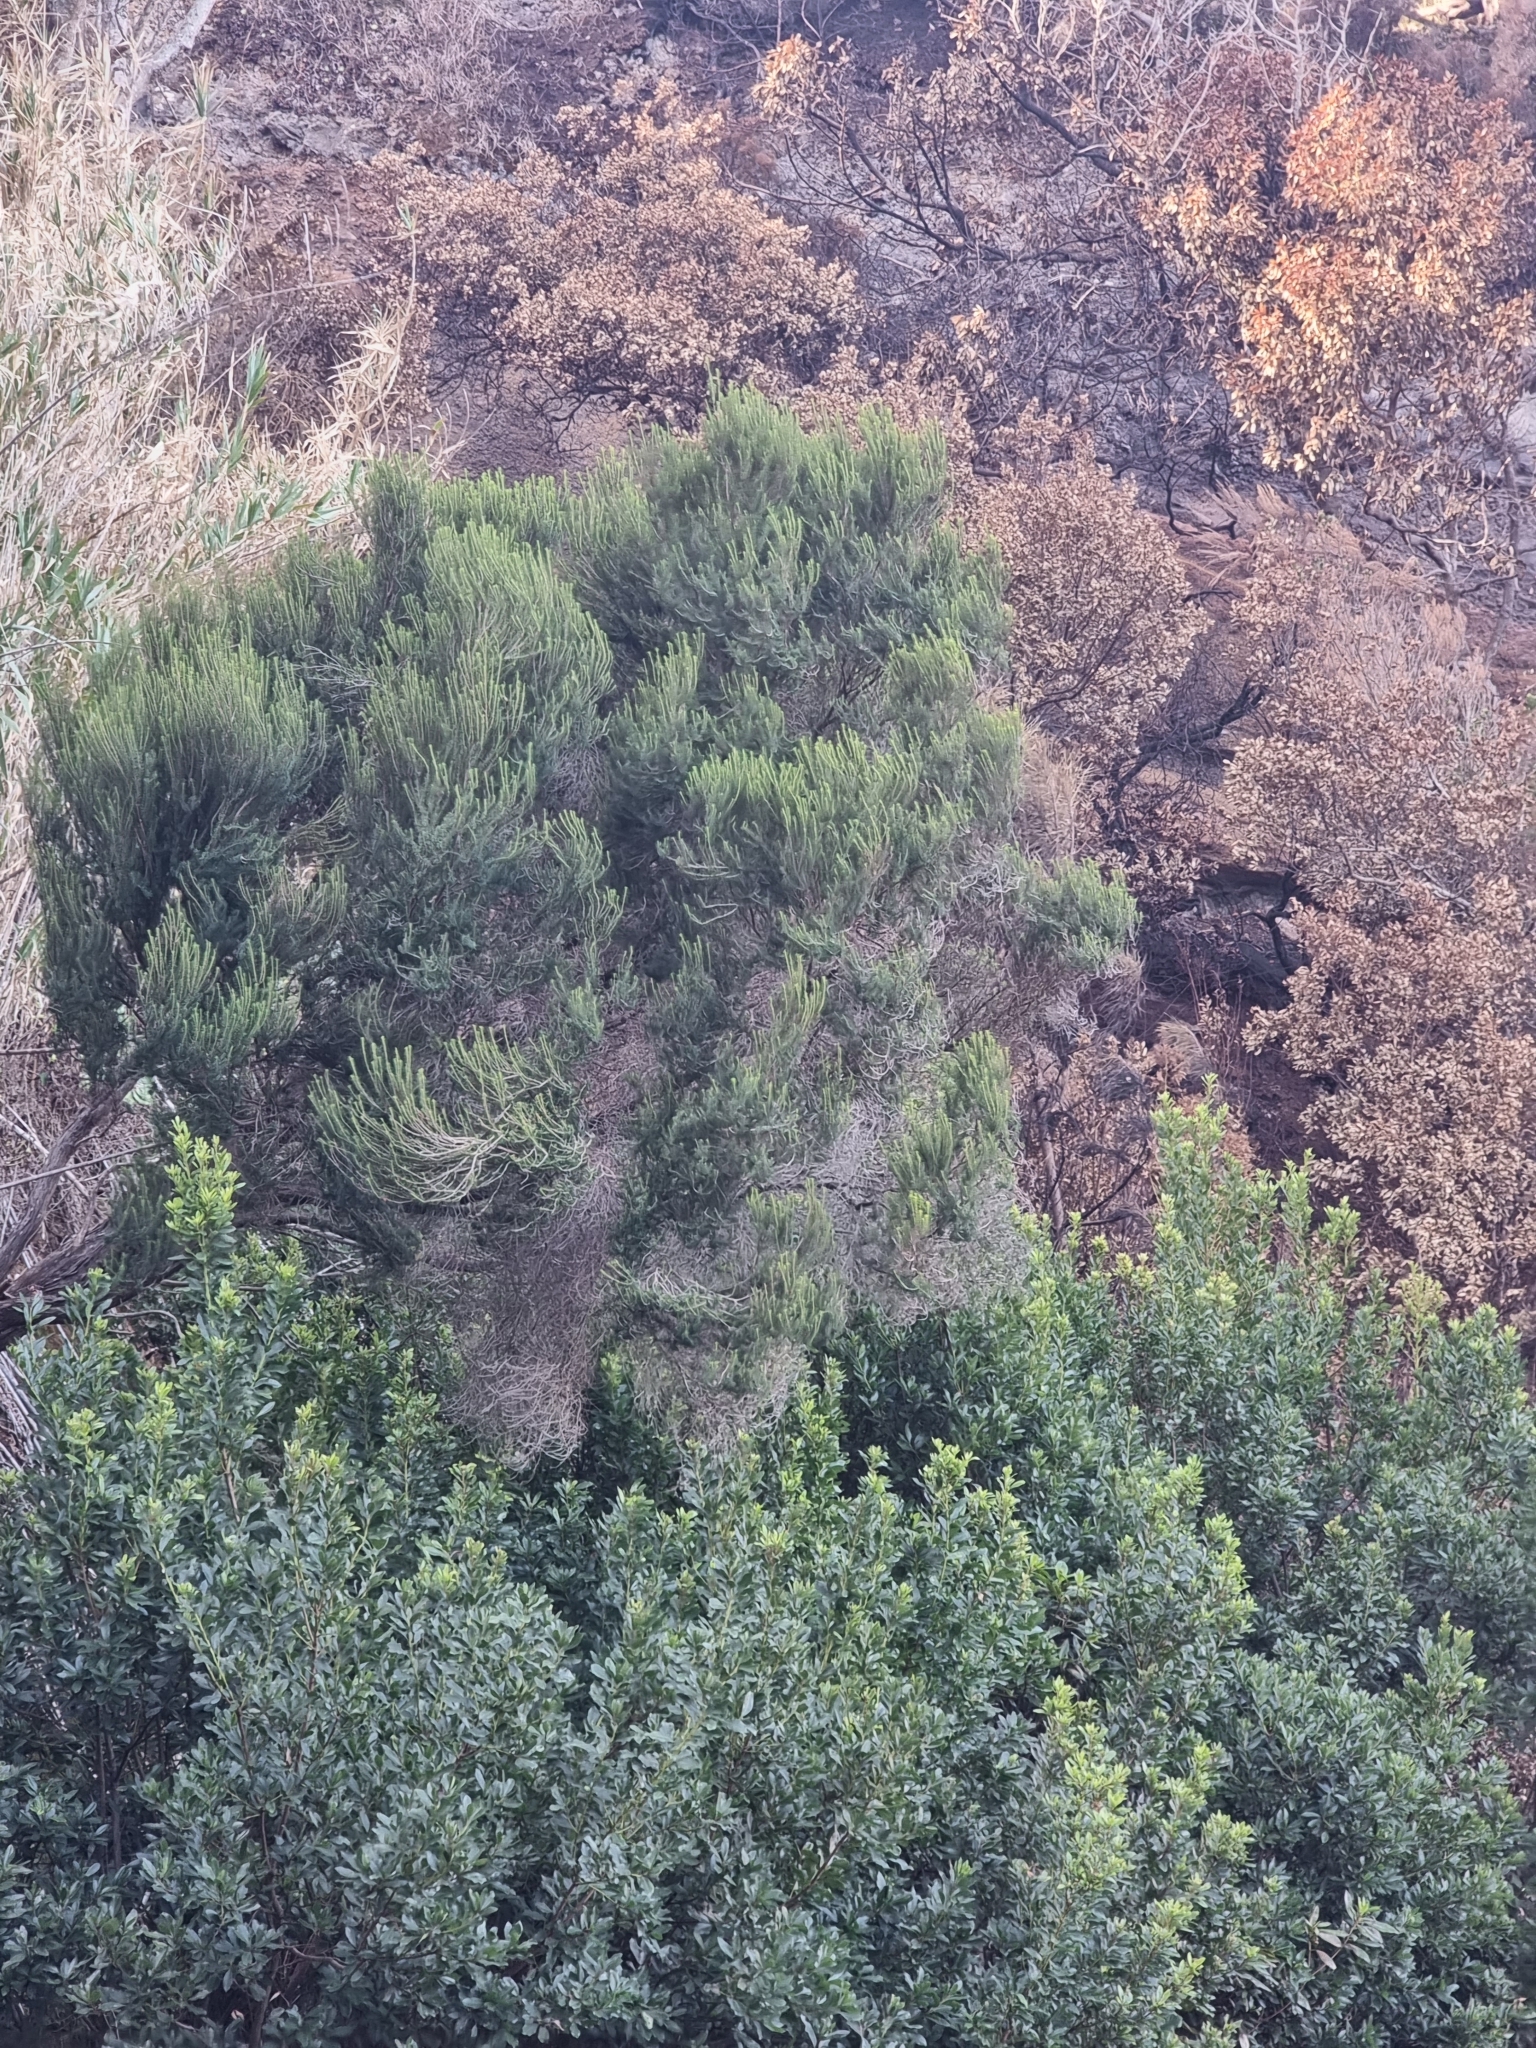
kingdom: Plantae
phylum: Tracheophyta
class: Magnoliopsida
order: Ericales
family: Ericaceae
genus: Erica
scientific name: Erica platycodon
